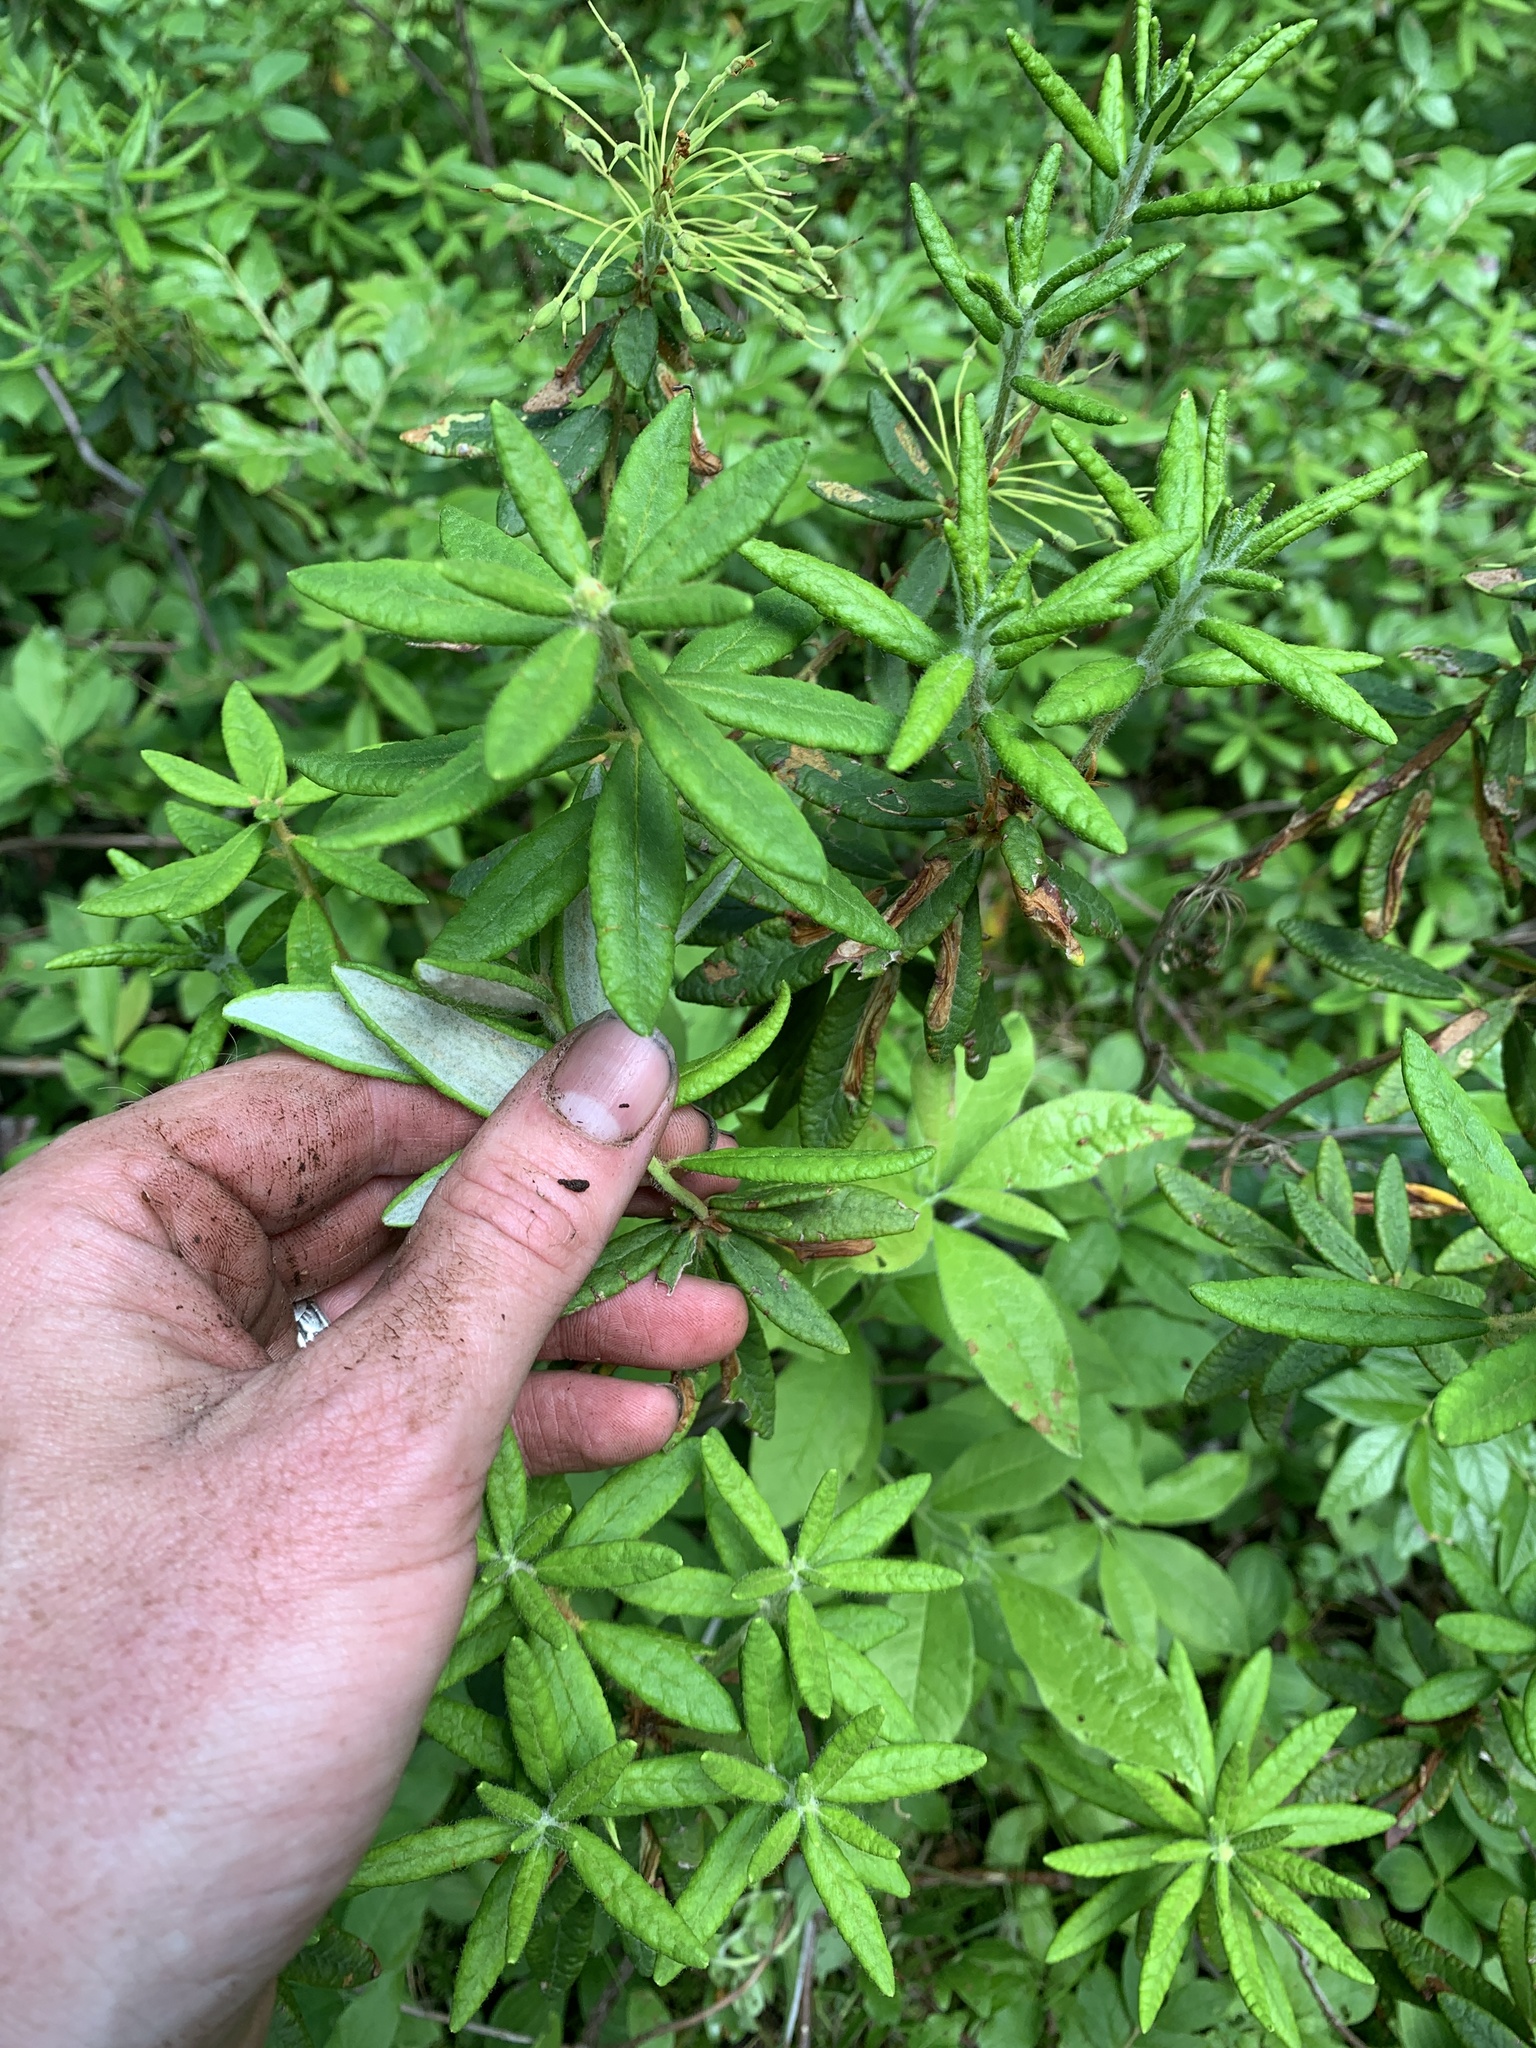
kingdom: Plantae
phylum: Tracheophyta
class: Magnoliopsida
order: Ericales
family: Ericaceae
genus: Rhododendron
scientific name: Rhododendron groenlandicum
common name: Bog labrador tea
